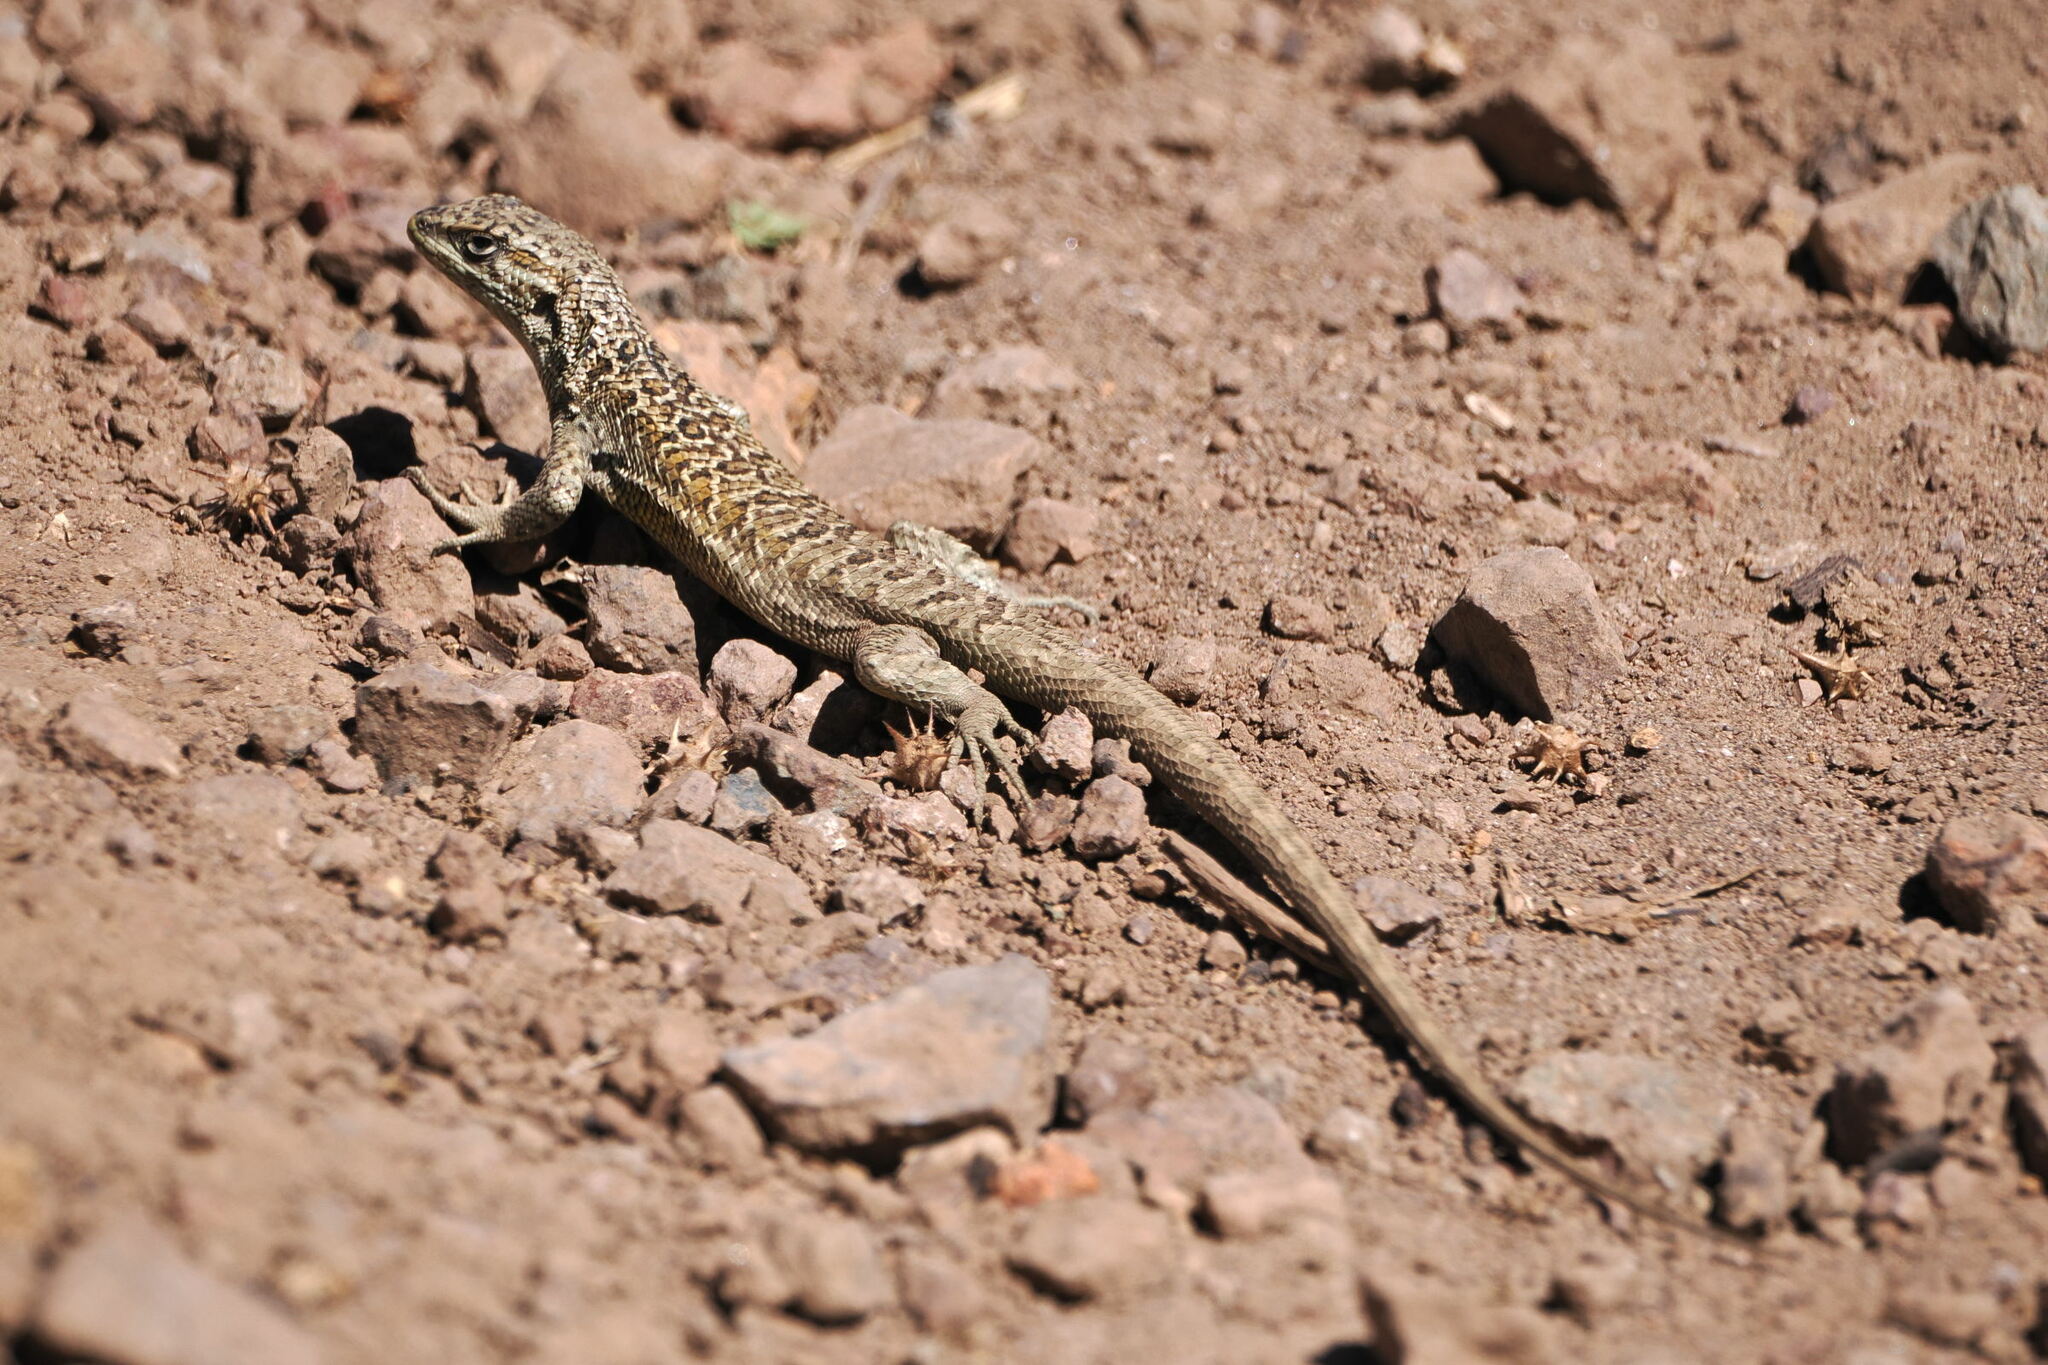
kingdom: Animalia
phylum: Chordata
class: Squamata
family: Liolaemidae
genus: Liolaemus
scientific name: Liolaemus bellii
